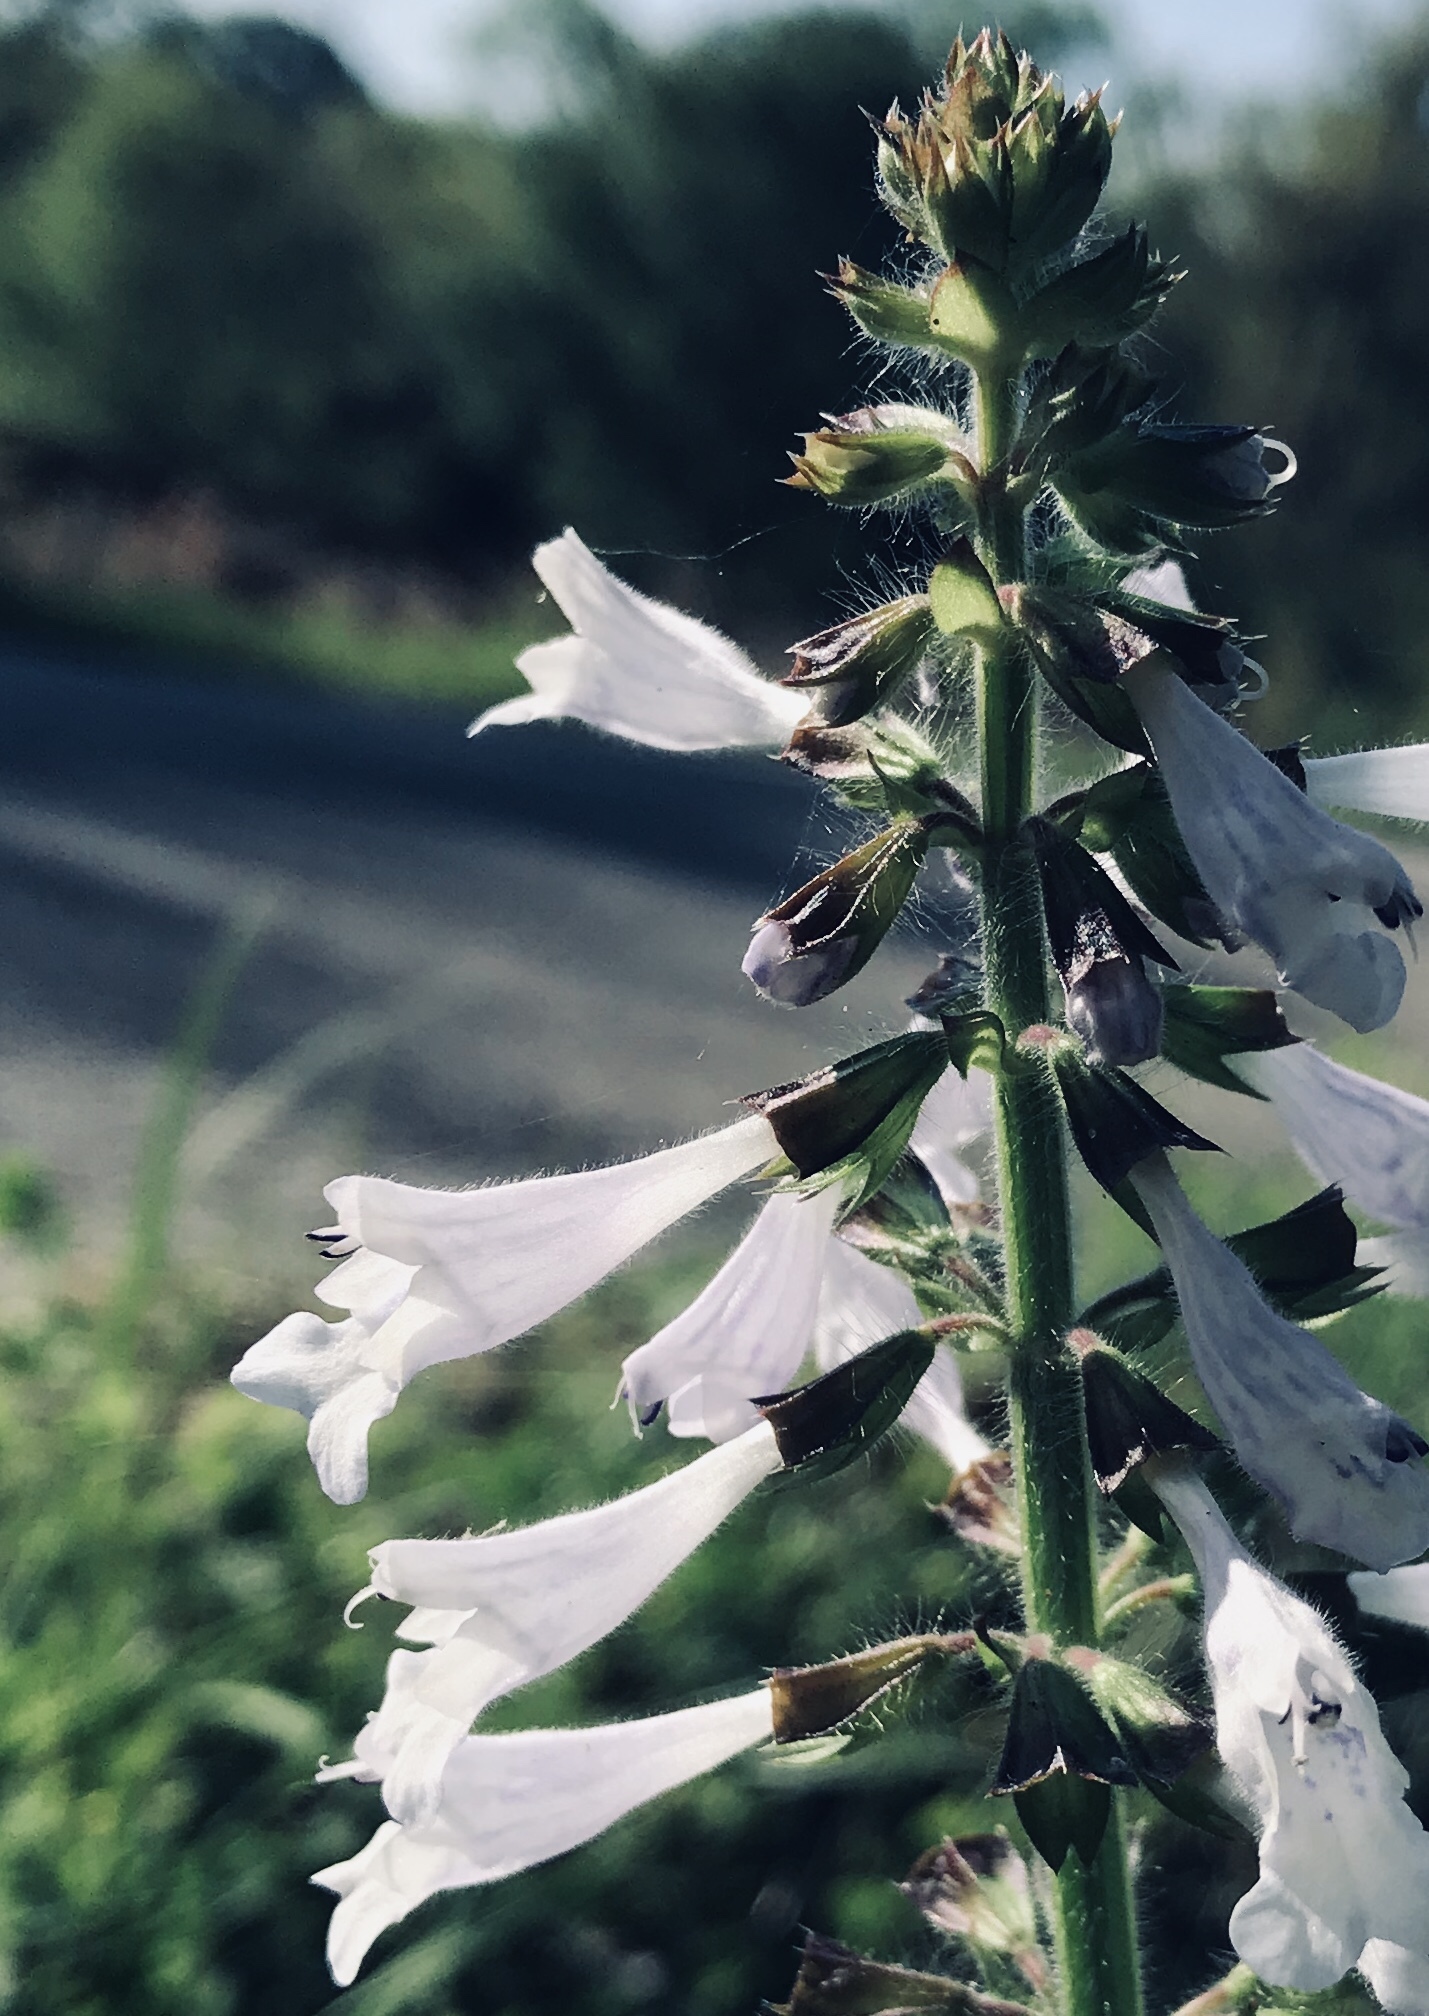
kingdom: Plantae
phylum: Tracheophyta
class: Magnoliopsida
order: Lamiales
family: Lamiaceae
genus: Salvia
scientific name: Salvia lyrata
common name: Cancerweed
